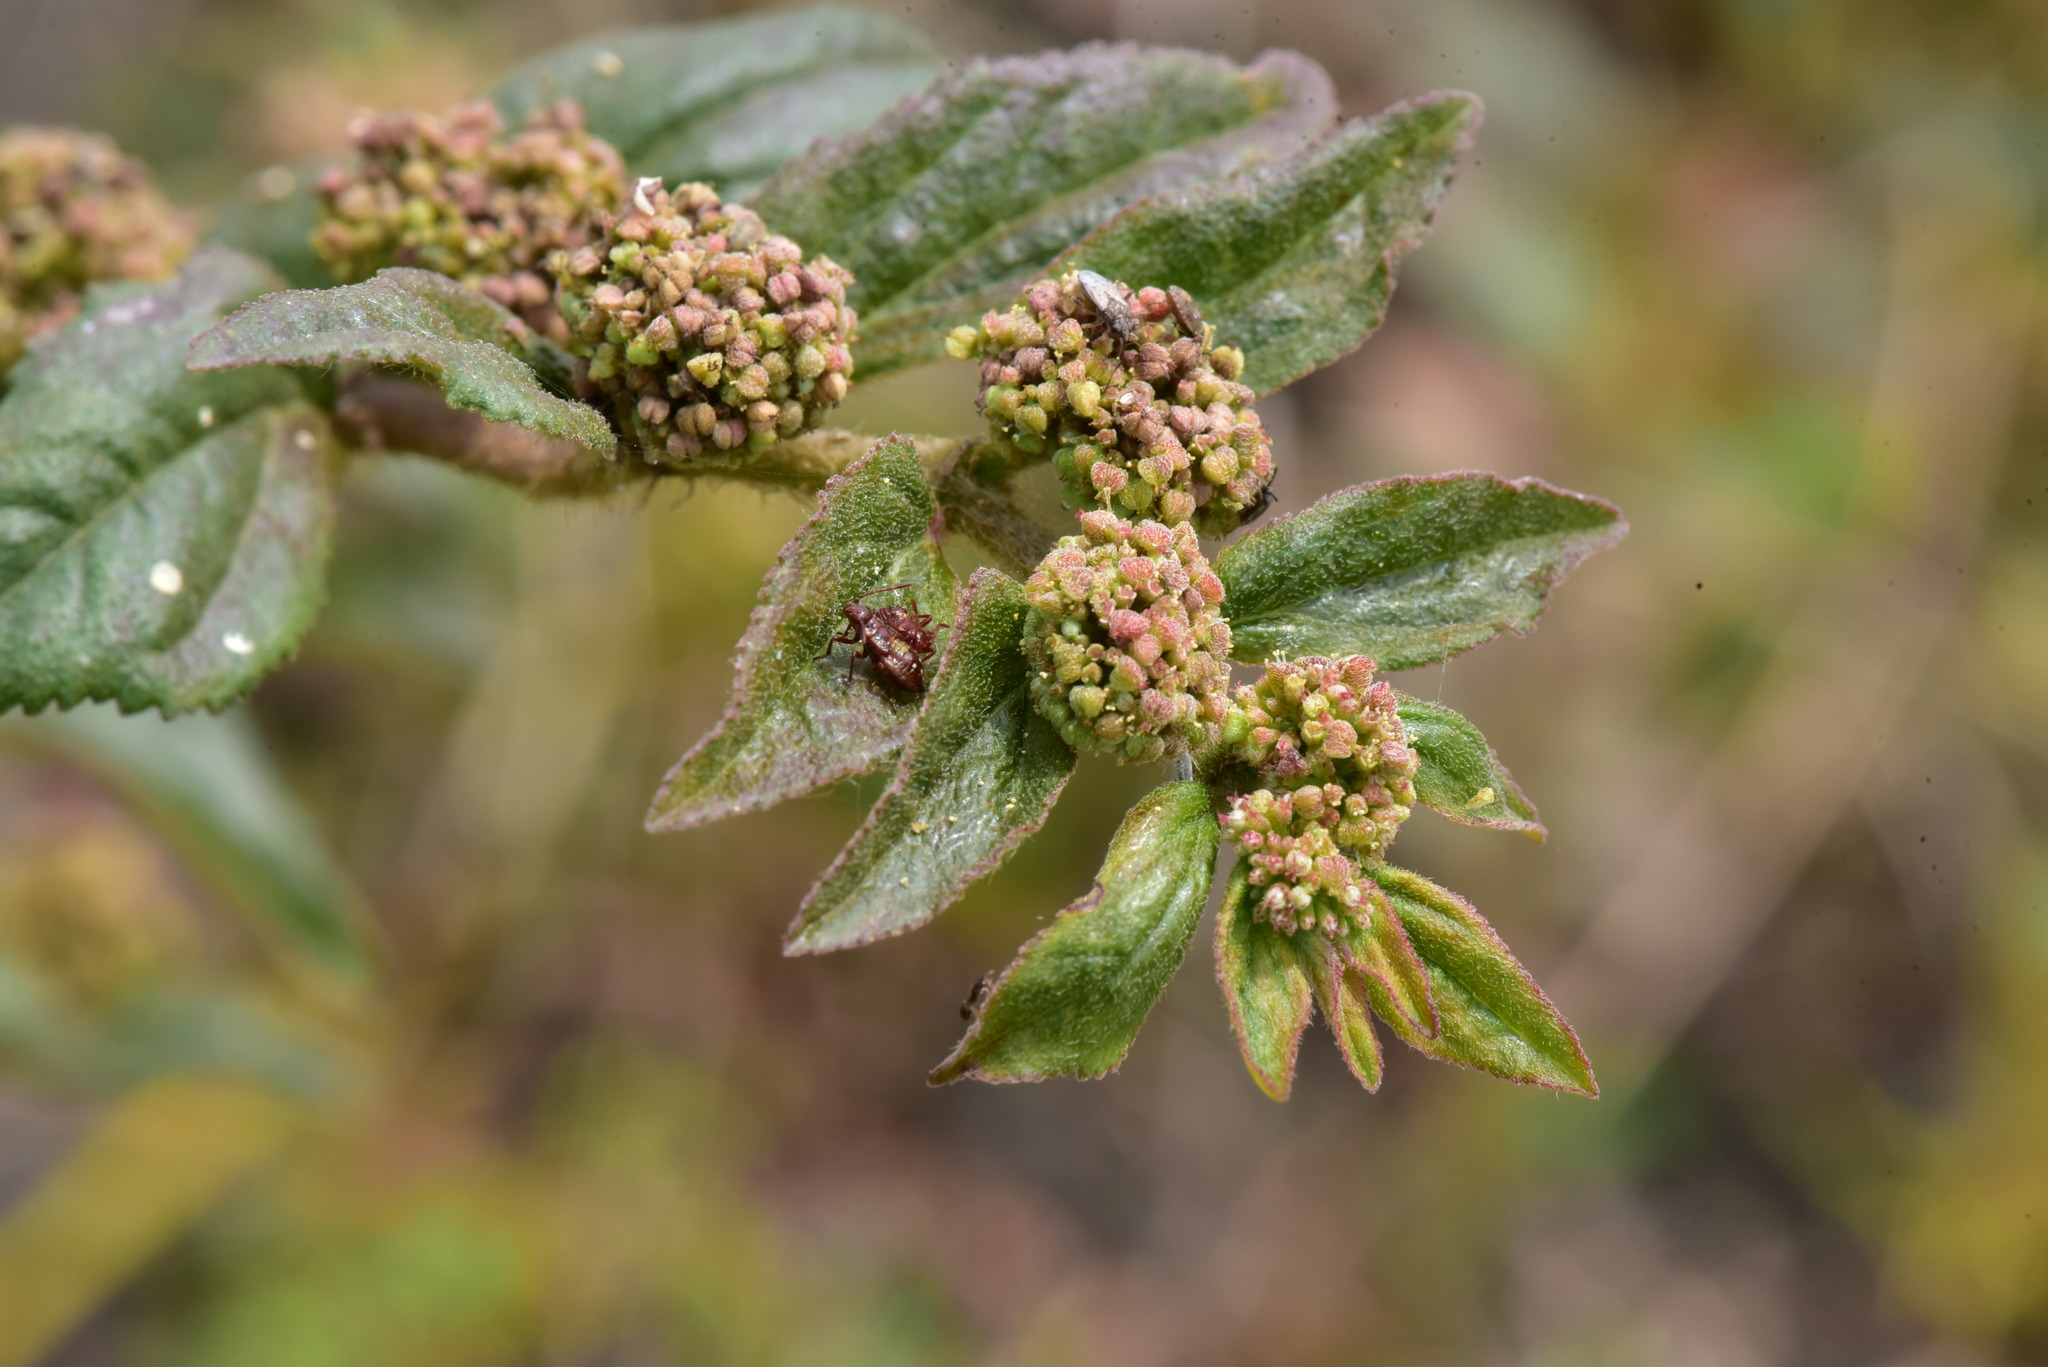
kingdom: Plantae
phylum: Tracheophyta
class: Magnoliopsida
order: Malpighiales
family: Euphorbiaceae
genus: Euphorbia
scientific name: Euphorbia hirta
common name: Pillpod sandmat
